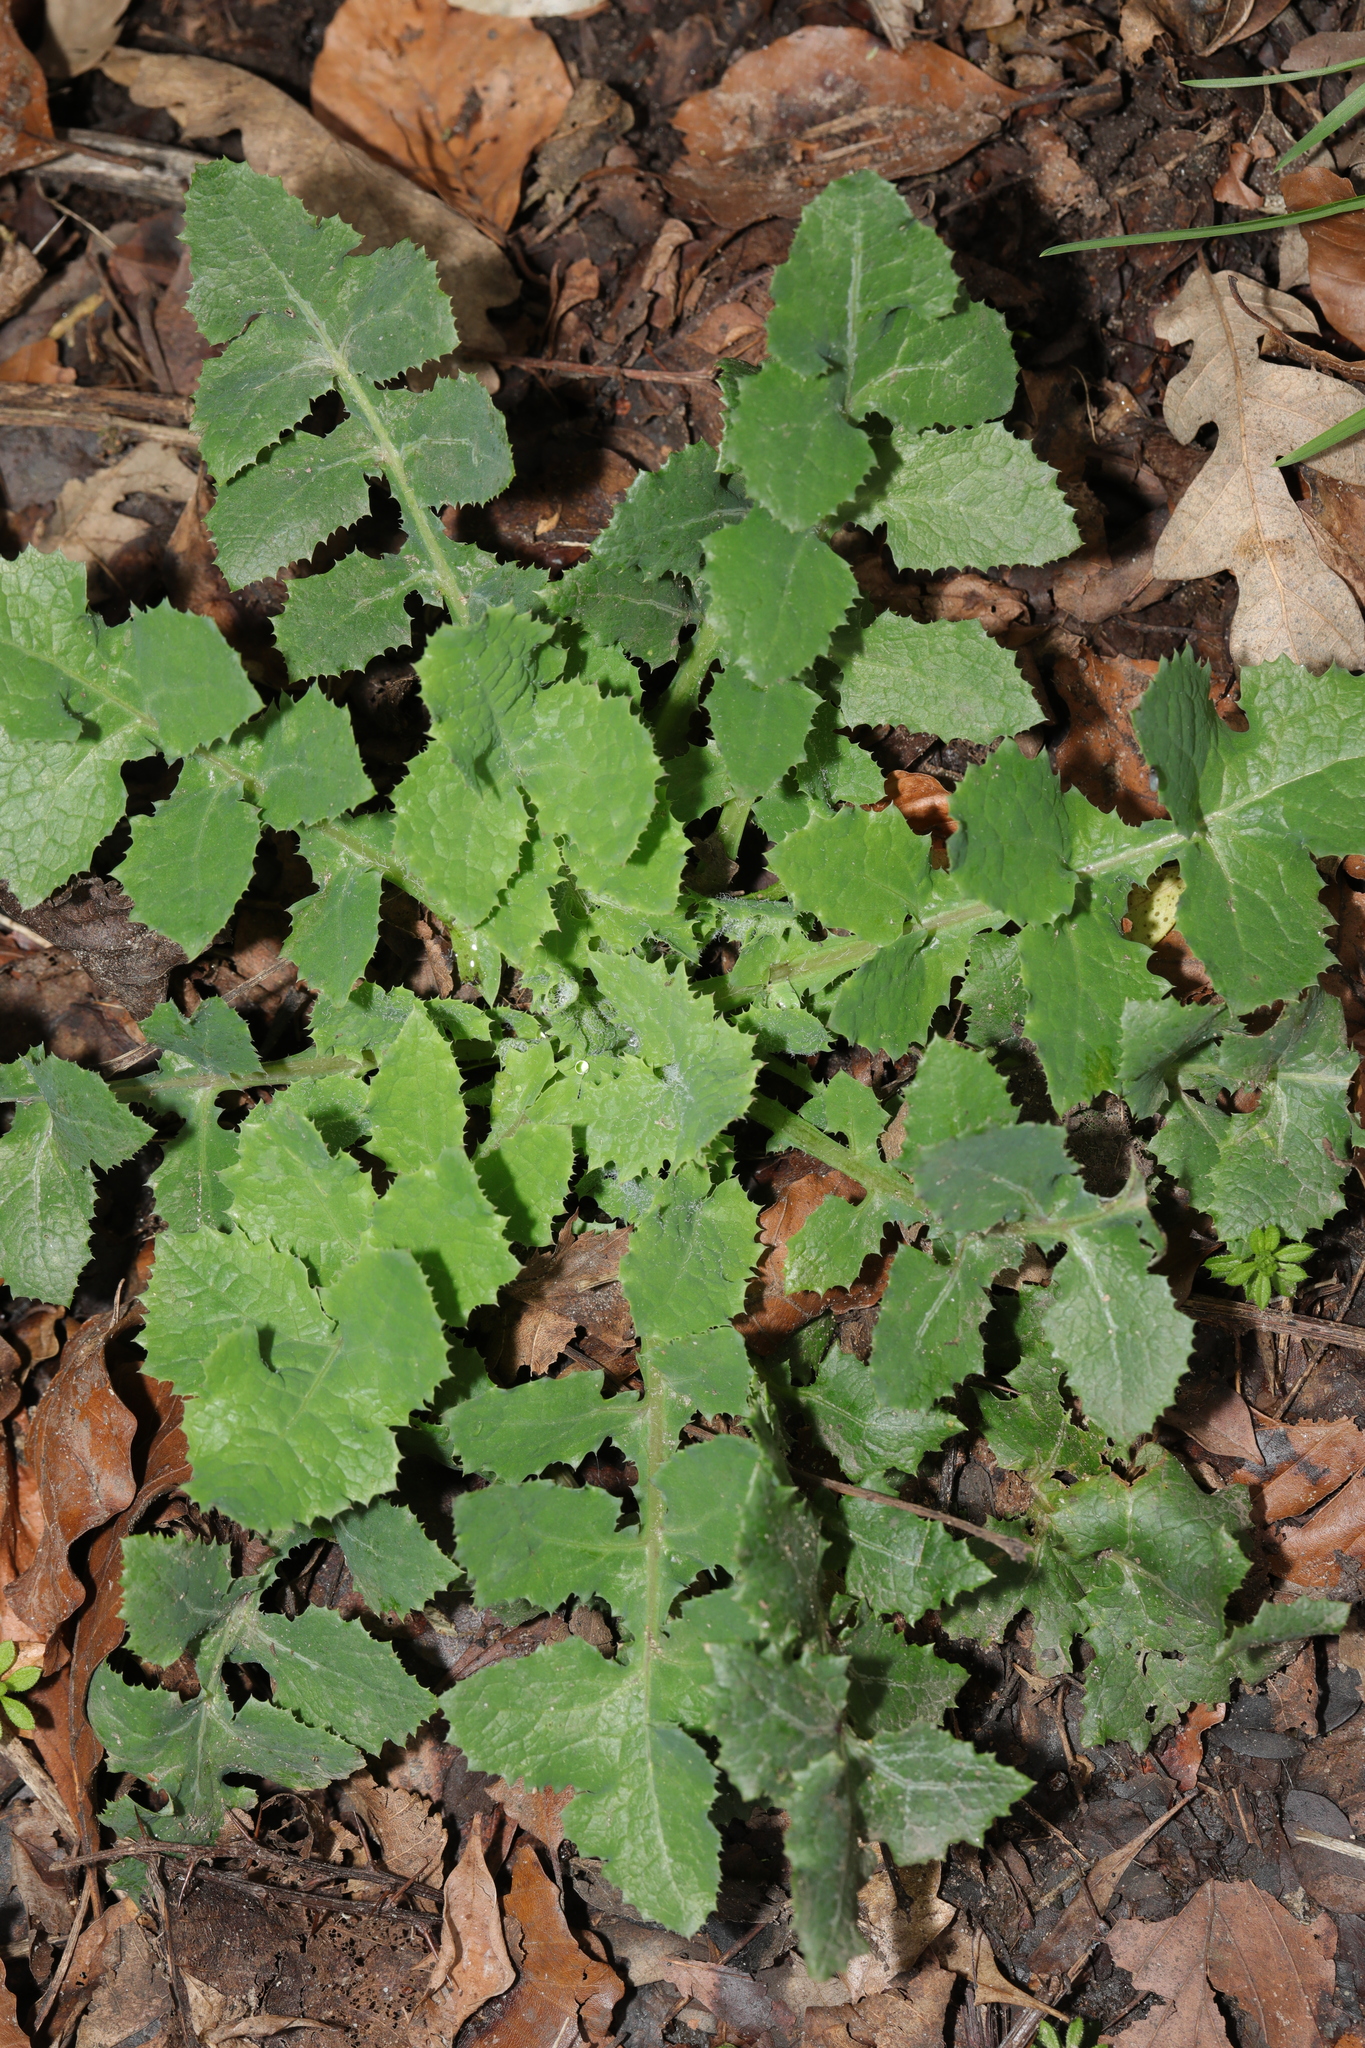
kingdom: Plantae
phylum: Tracheophyta
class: Magnoliopsida
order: Asterales
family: Asteraceae
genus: Sonchus
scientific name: Sonchus oleraceus
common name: Common sowthistle
